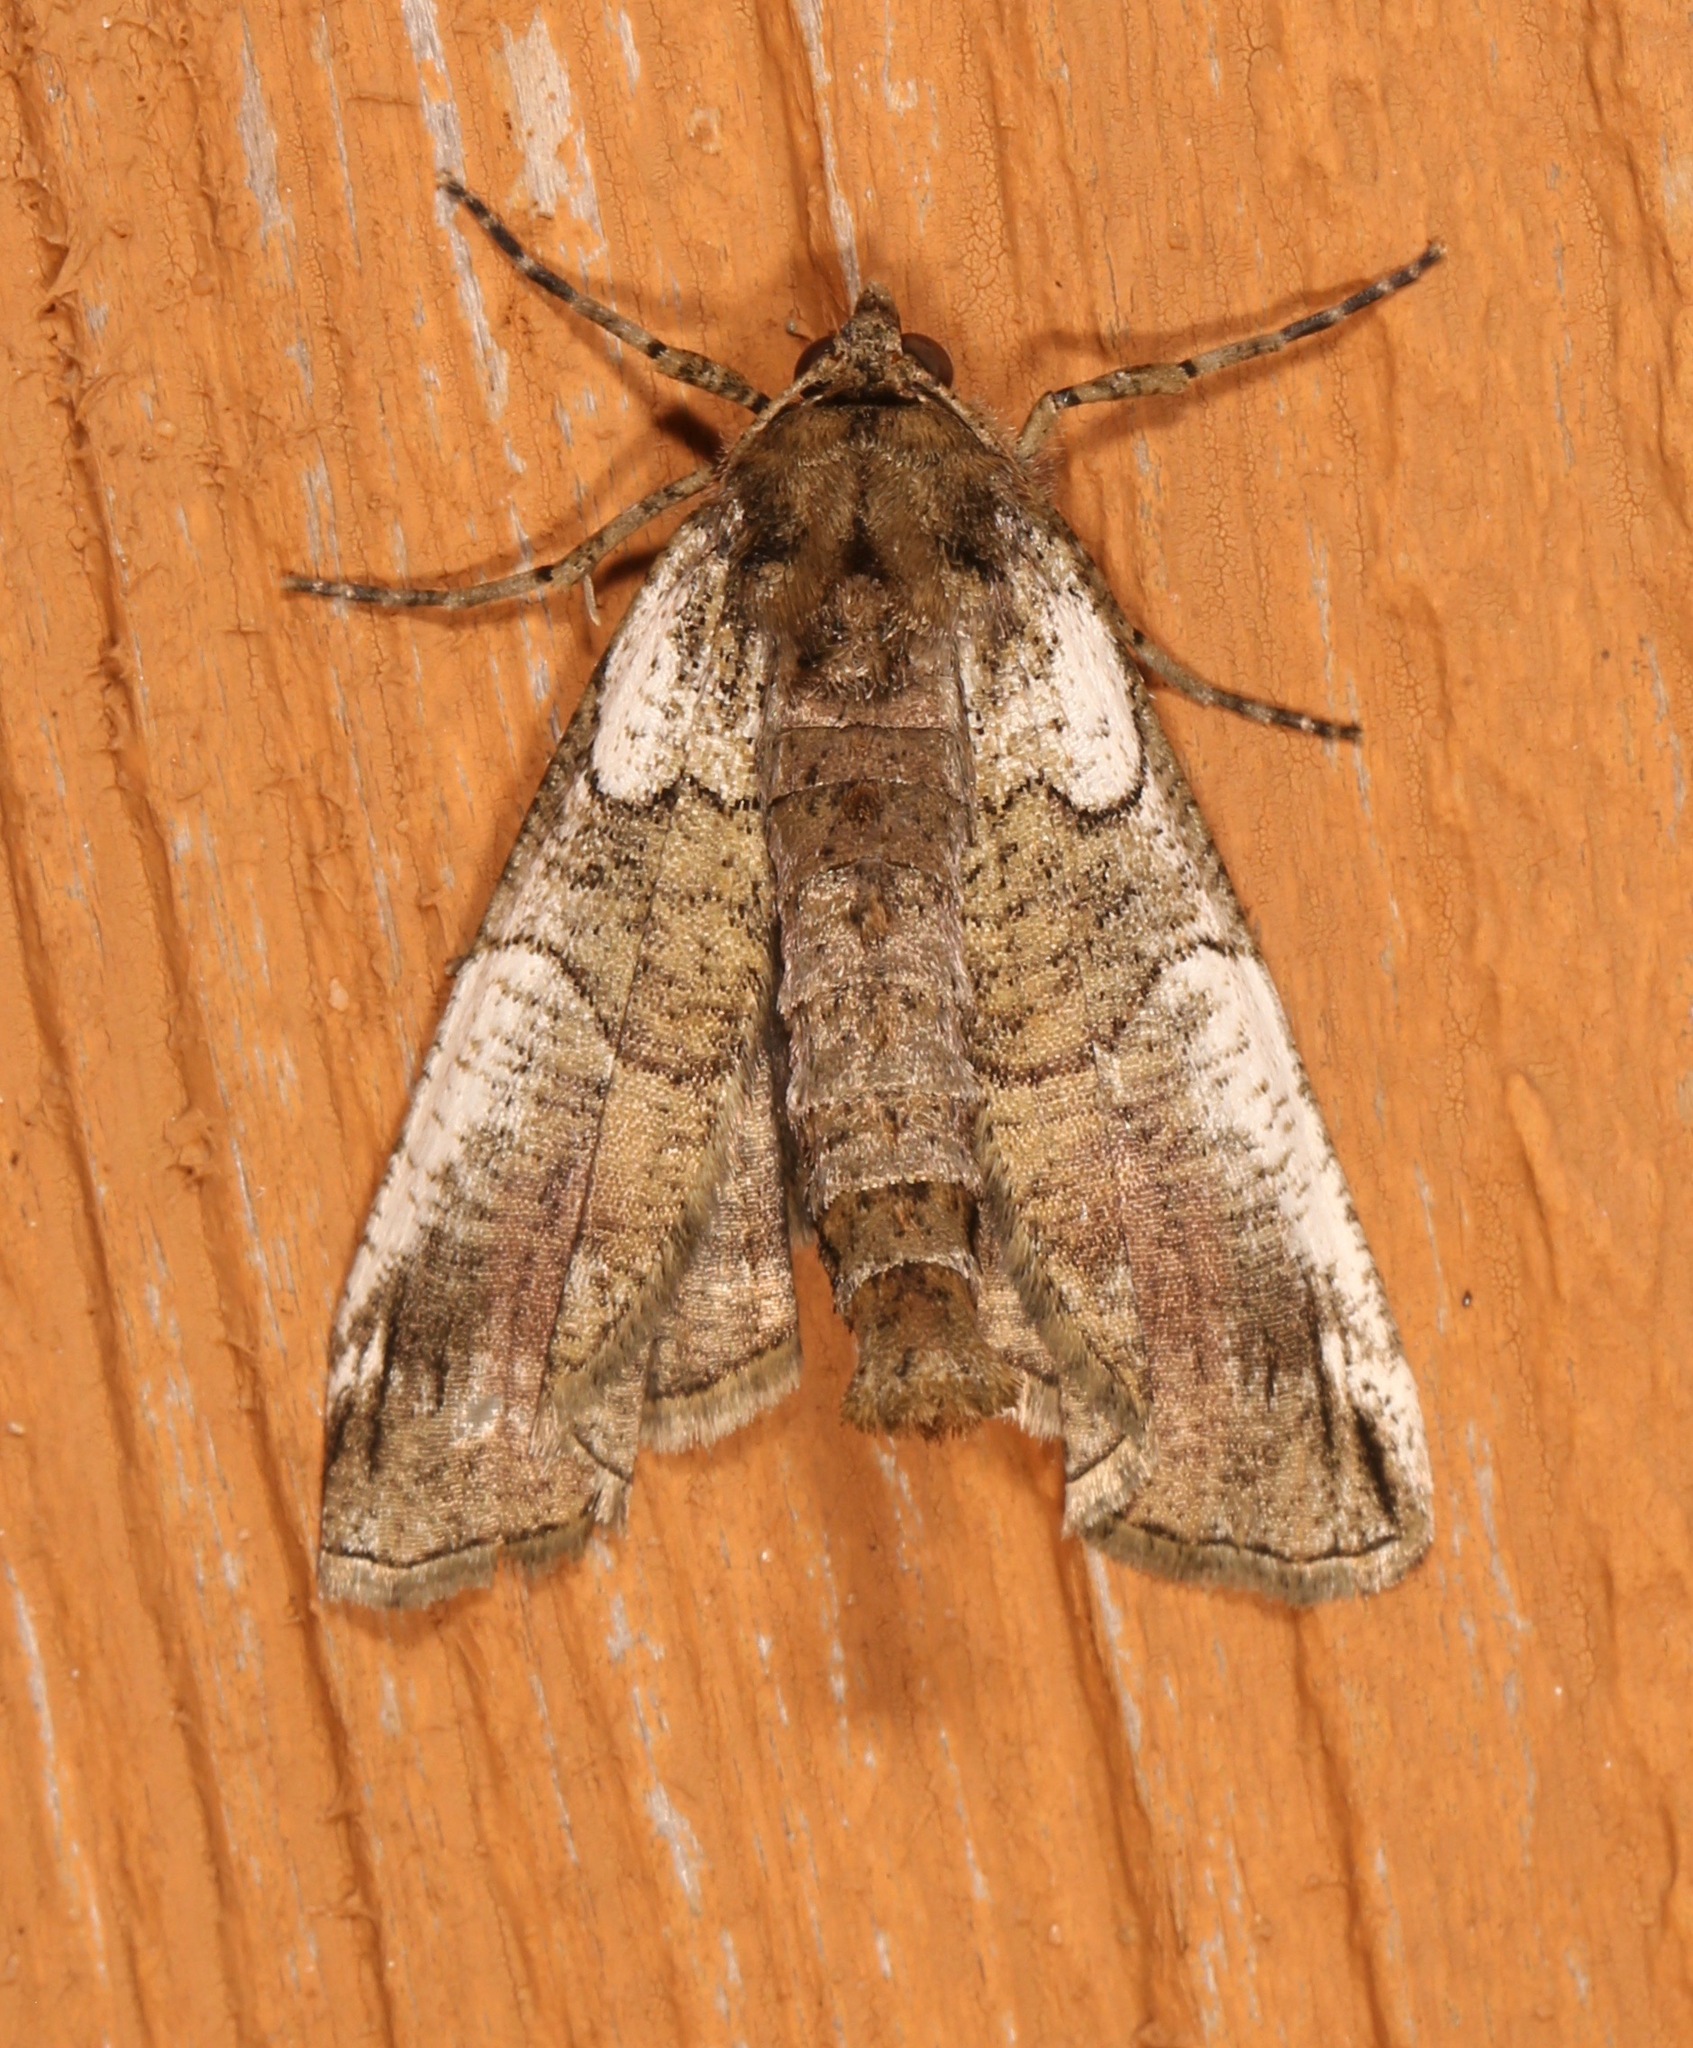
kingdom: Animalia
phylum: Arthropoda
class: Insecta
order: Lepidoptera
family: Geometridae
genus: Ceratonyx
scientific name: Ceratonyx satanaria
